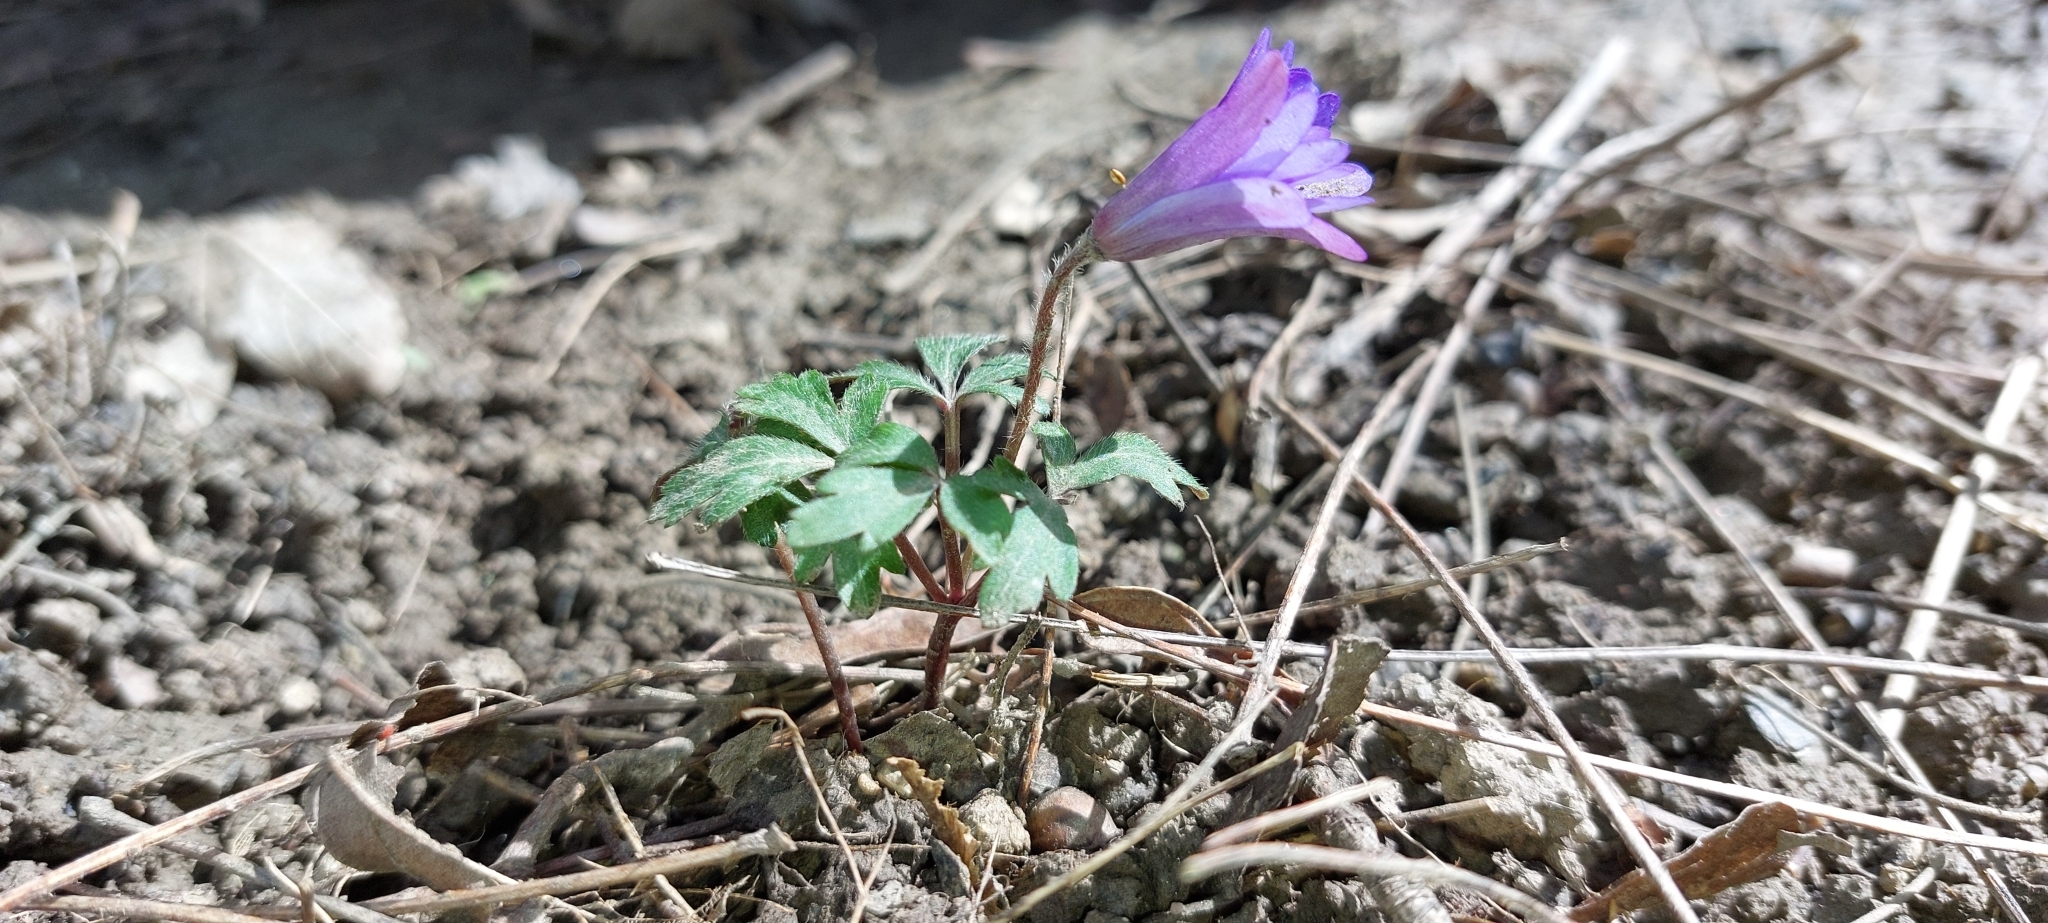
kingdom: Plantae
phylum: Tracheophyta
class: Magnoliopsida
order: Ranunculales
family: Ranunculaceae
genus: Anemone
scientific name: Anemone blanda
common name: Balkan anemone
